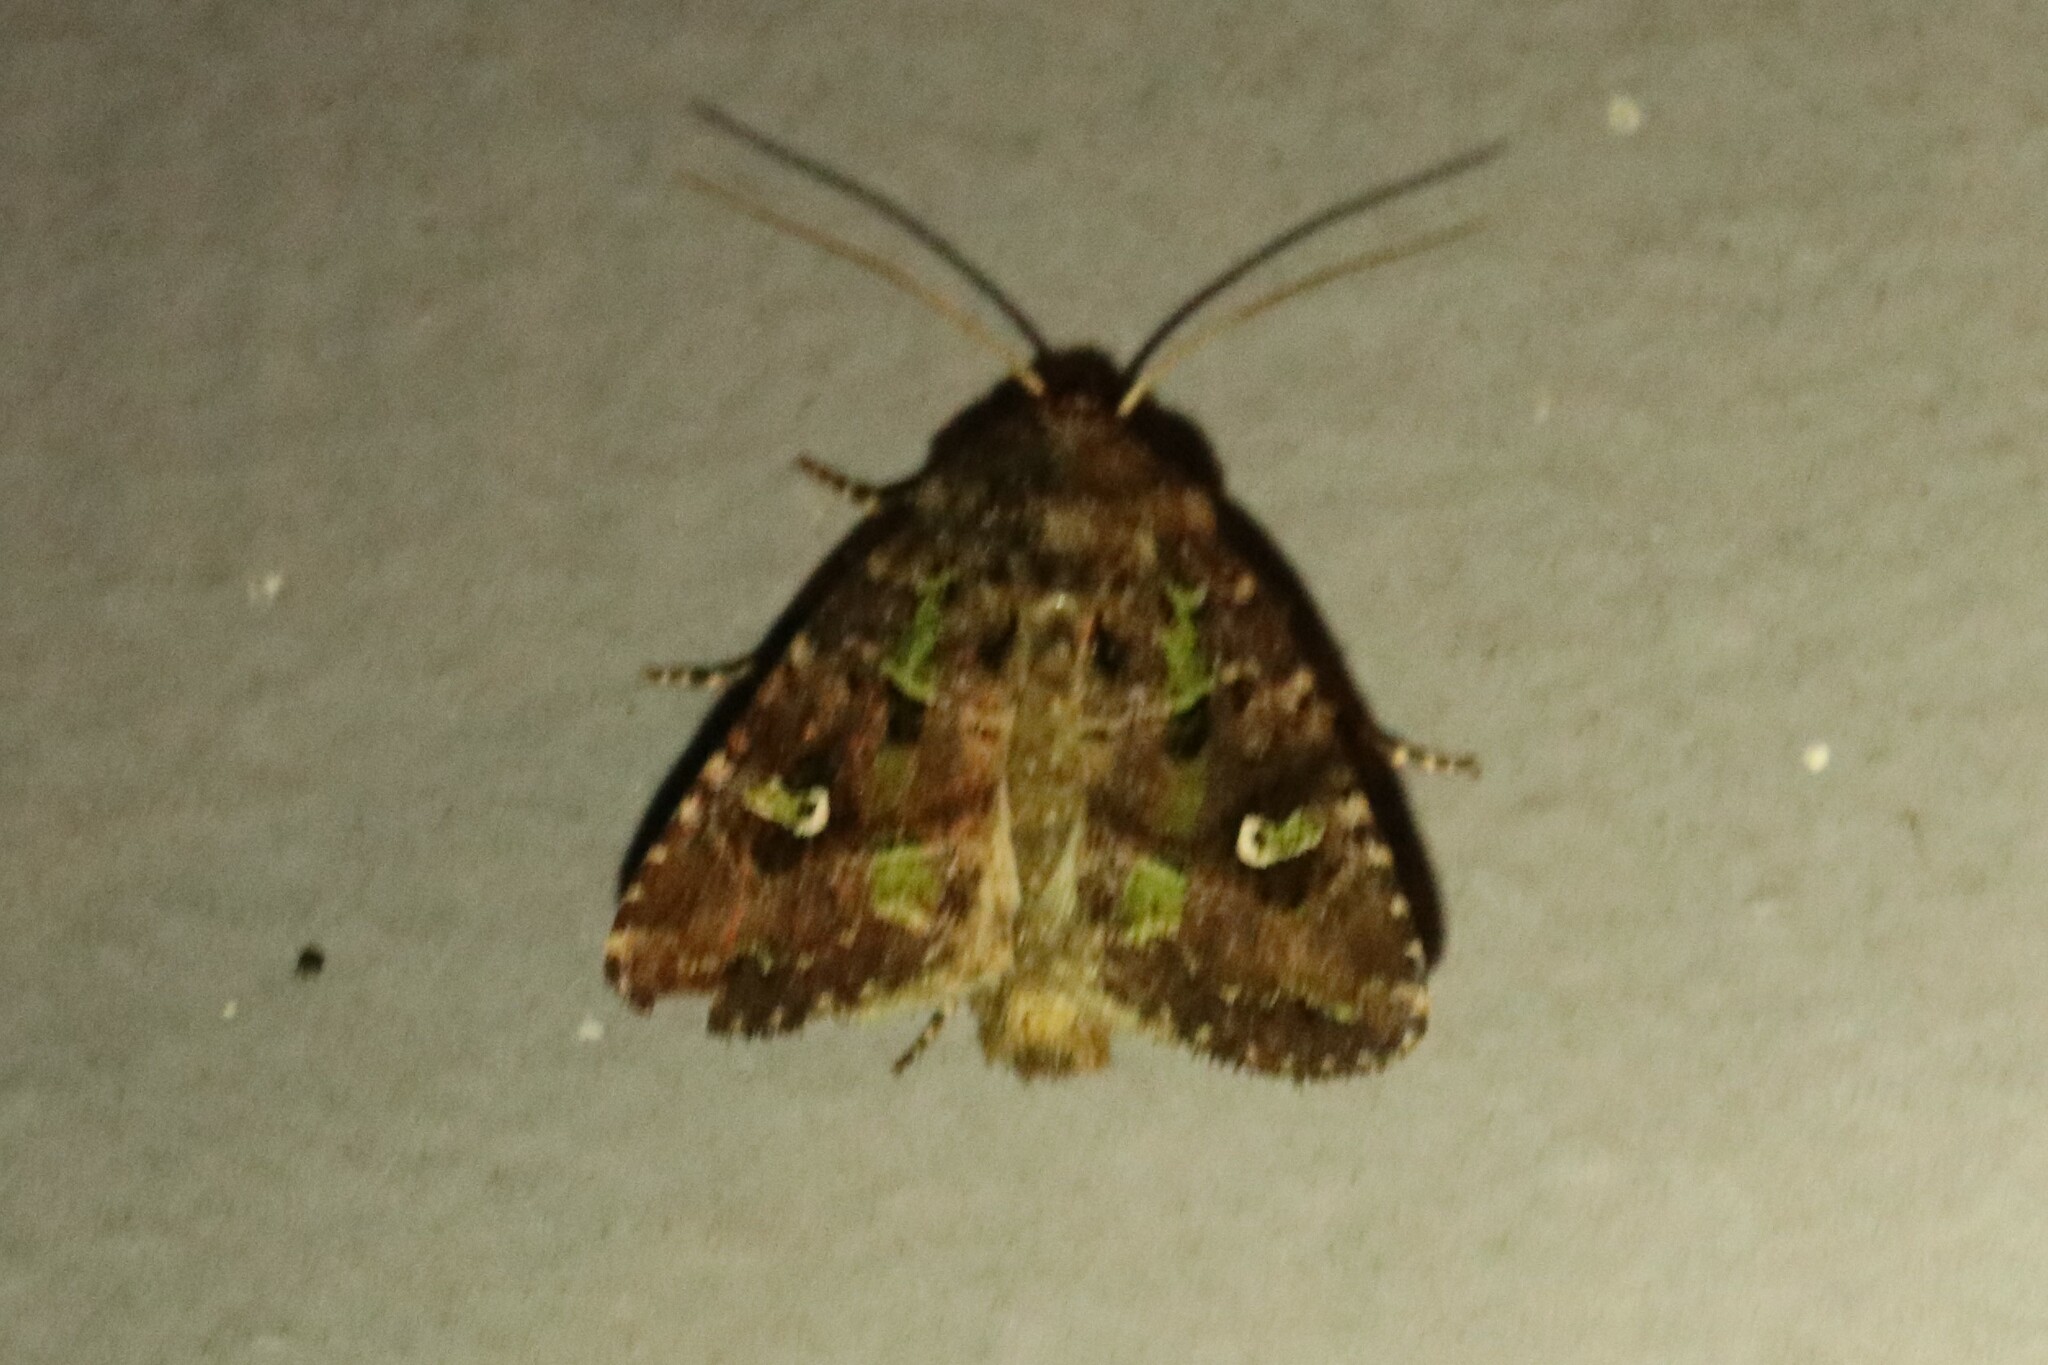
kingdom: Animalia
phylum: Arthropoda
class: Insecta
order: Lepidoptera
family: Noctuidae
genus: Lacinipolia
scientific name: Lacinipolia renigera
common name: Kidney-spotted minor
